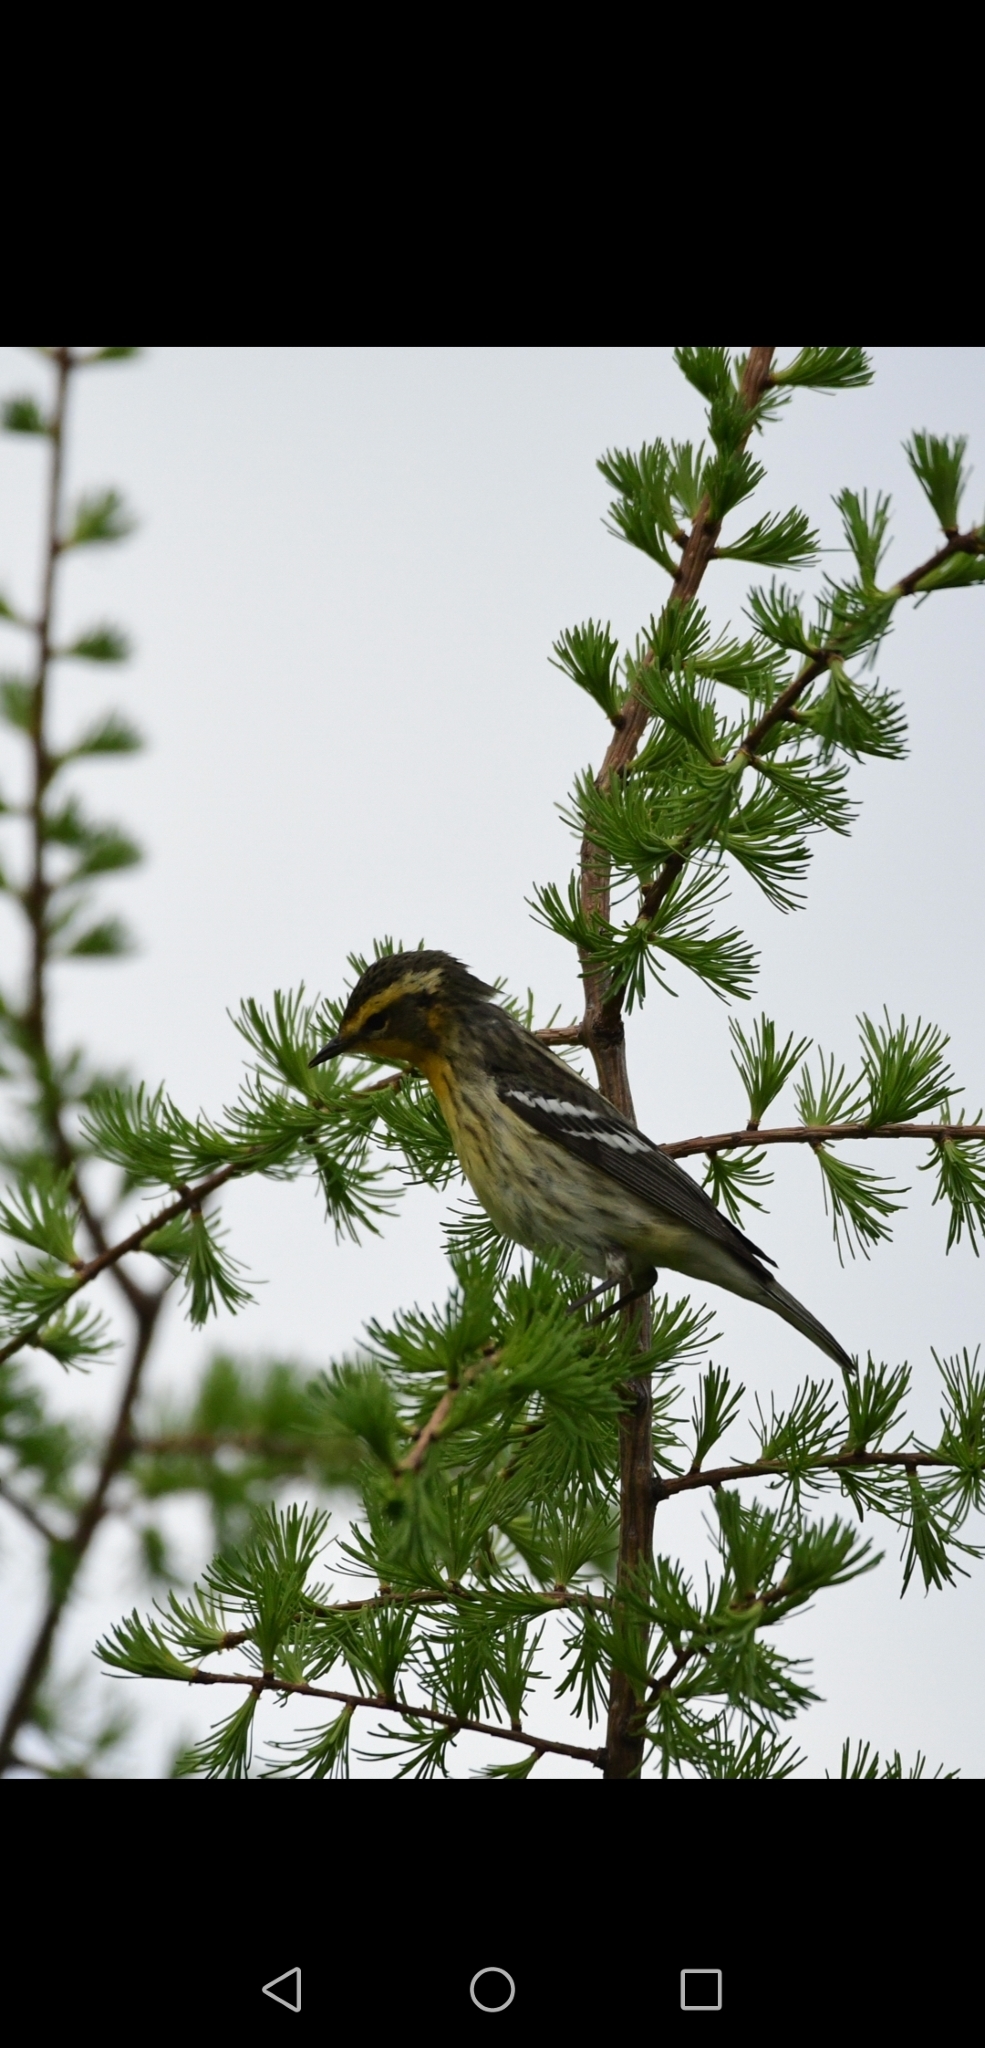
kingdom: Animalia
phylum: Chordata
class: Aves
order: Passeriformes
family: Parulidae
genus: Setophaga
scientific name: Setophaga fusca
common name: Blackburnian warbler
